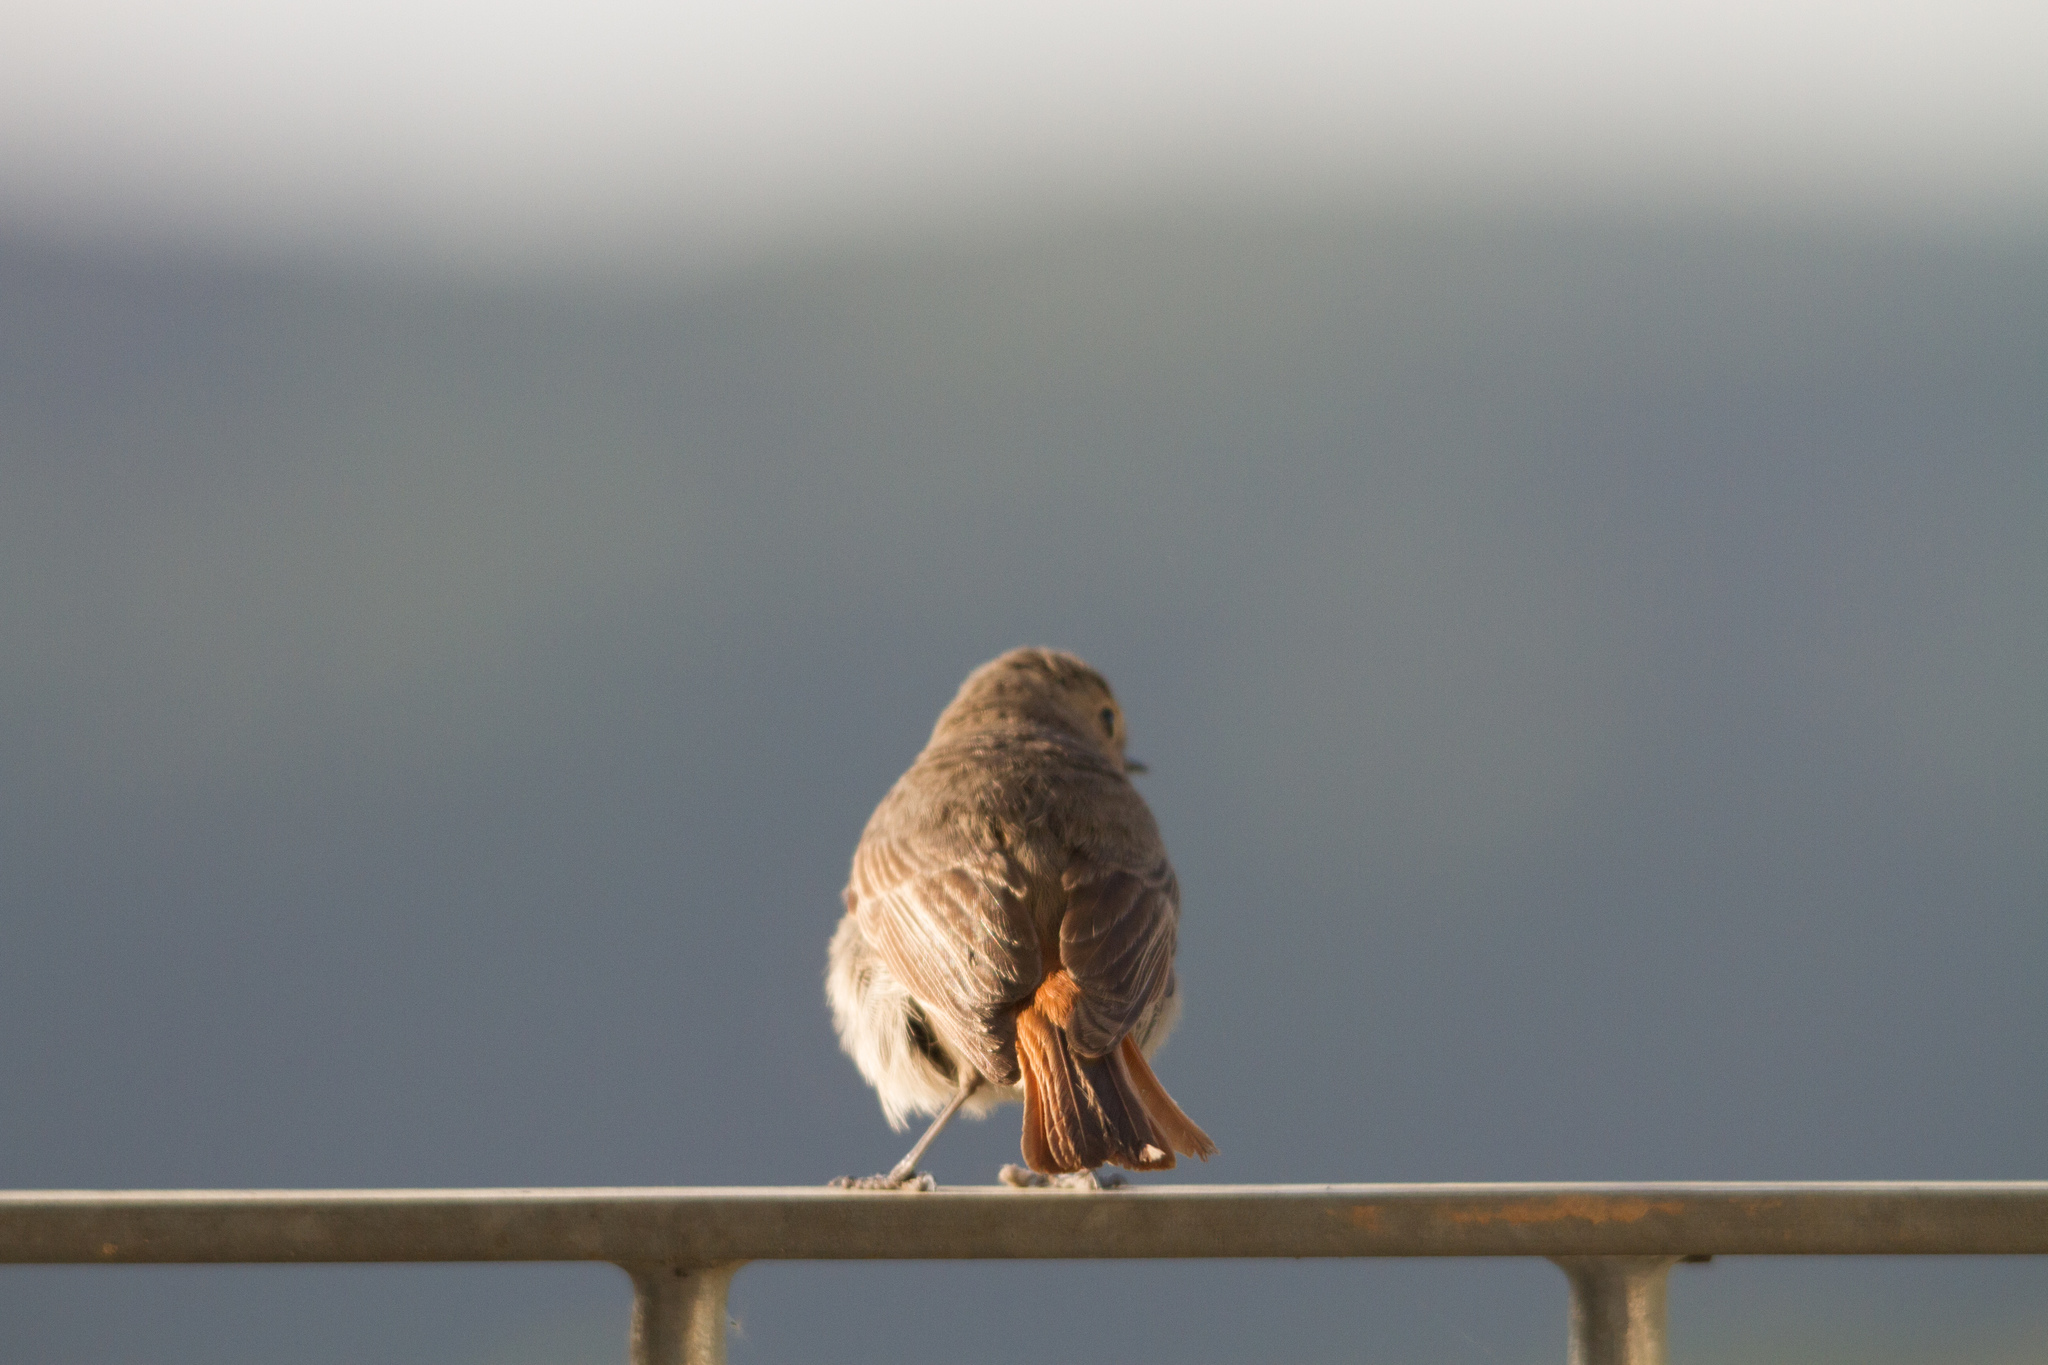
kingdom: Animalia
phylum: Chordata
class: Aves
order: Passeriformes
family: Muscicapidae
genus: Phoenicurus
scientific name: Phoenicurus ochruros
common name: Black redstart
